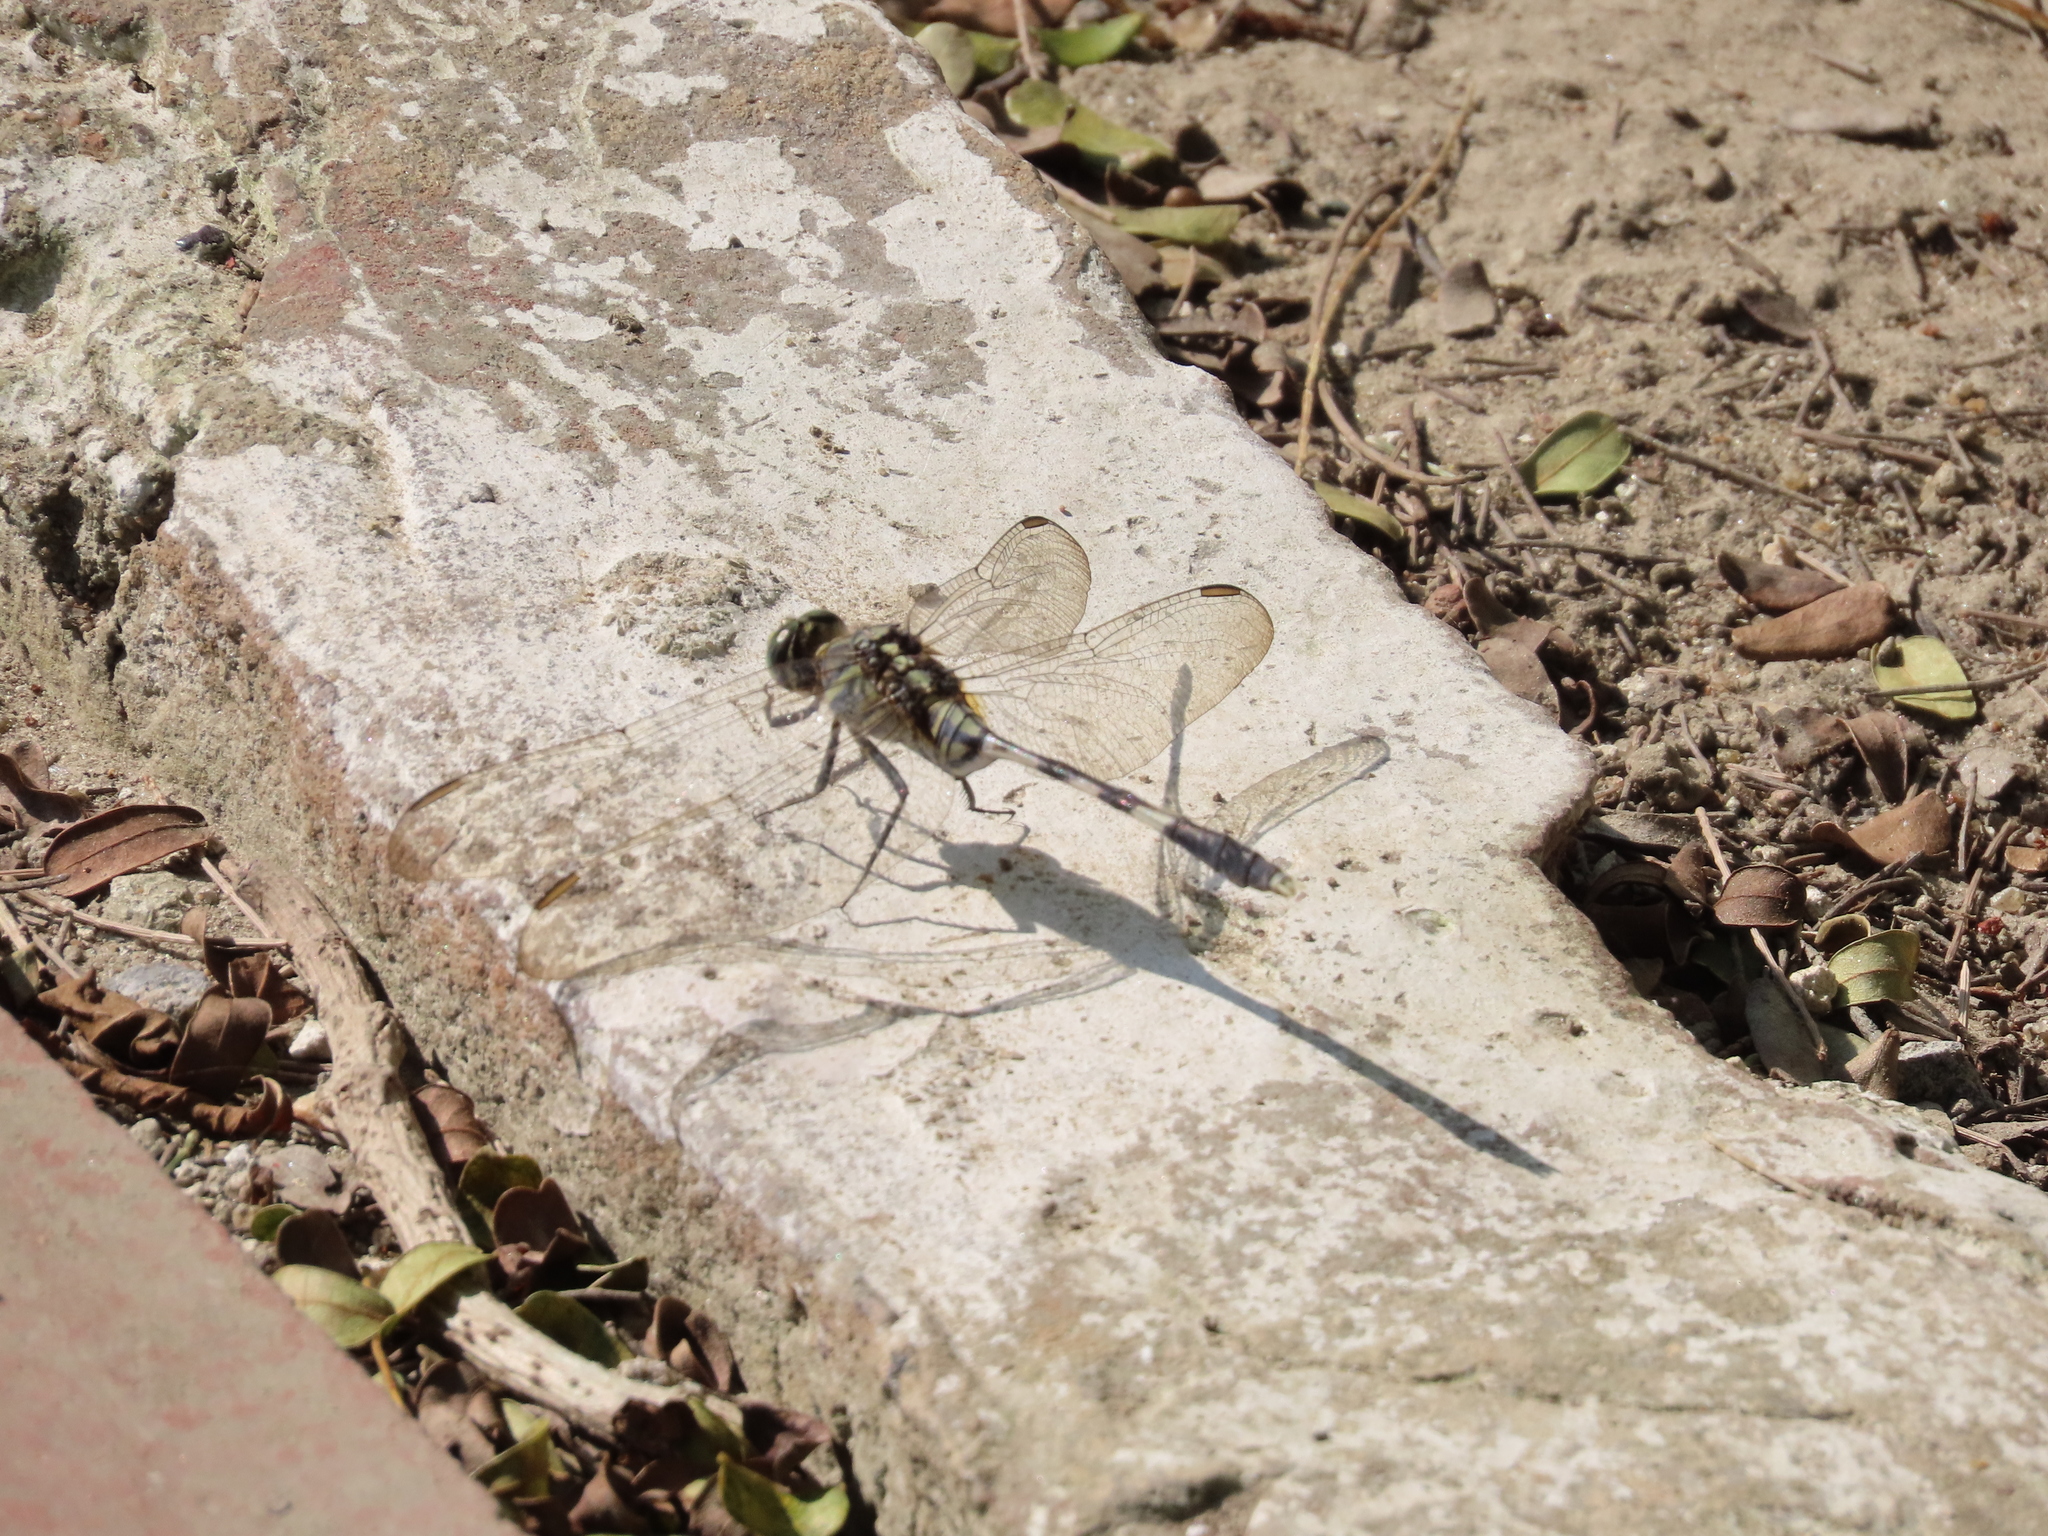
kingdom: Animalia
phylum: Arthropoda
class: Insecta
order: Odonata
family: Libellulidae
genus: Orthetrum
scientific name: Orthetrum sabina
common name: Slender skimmer
